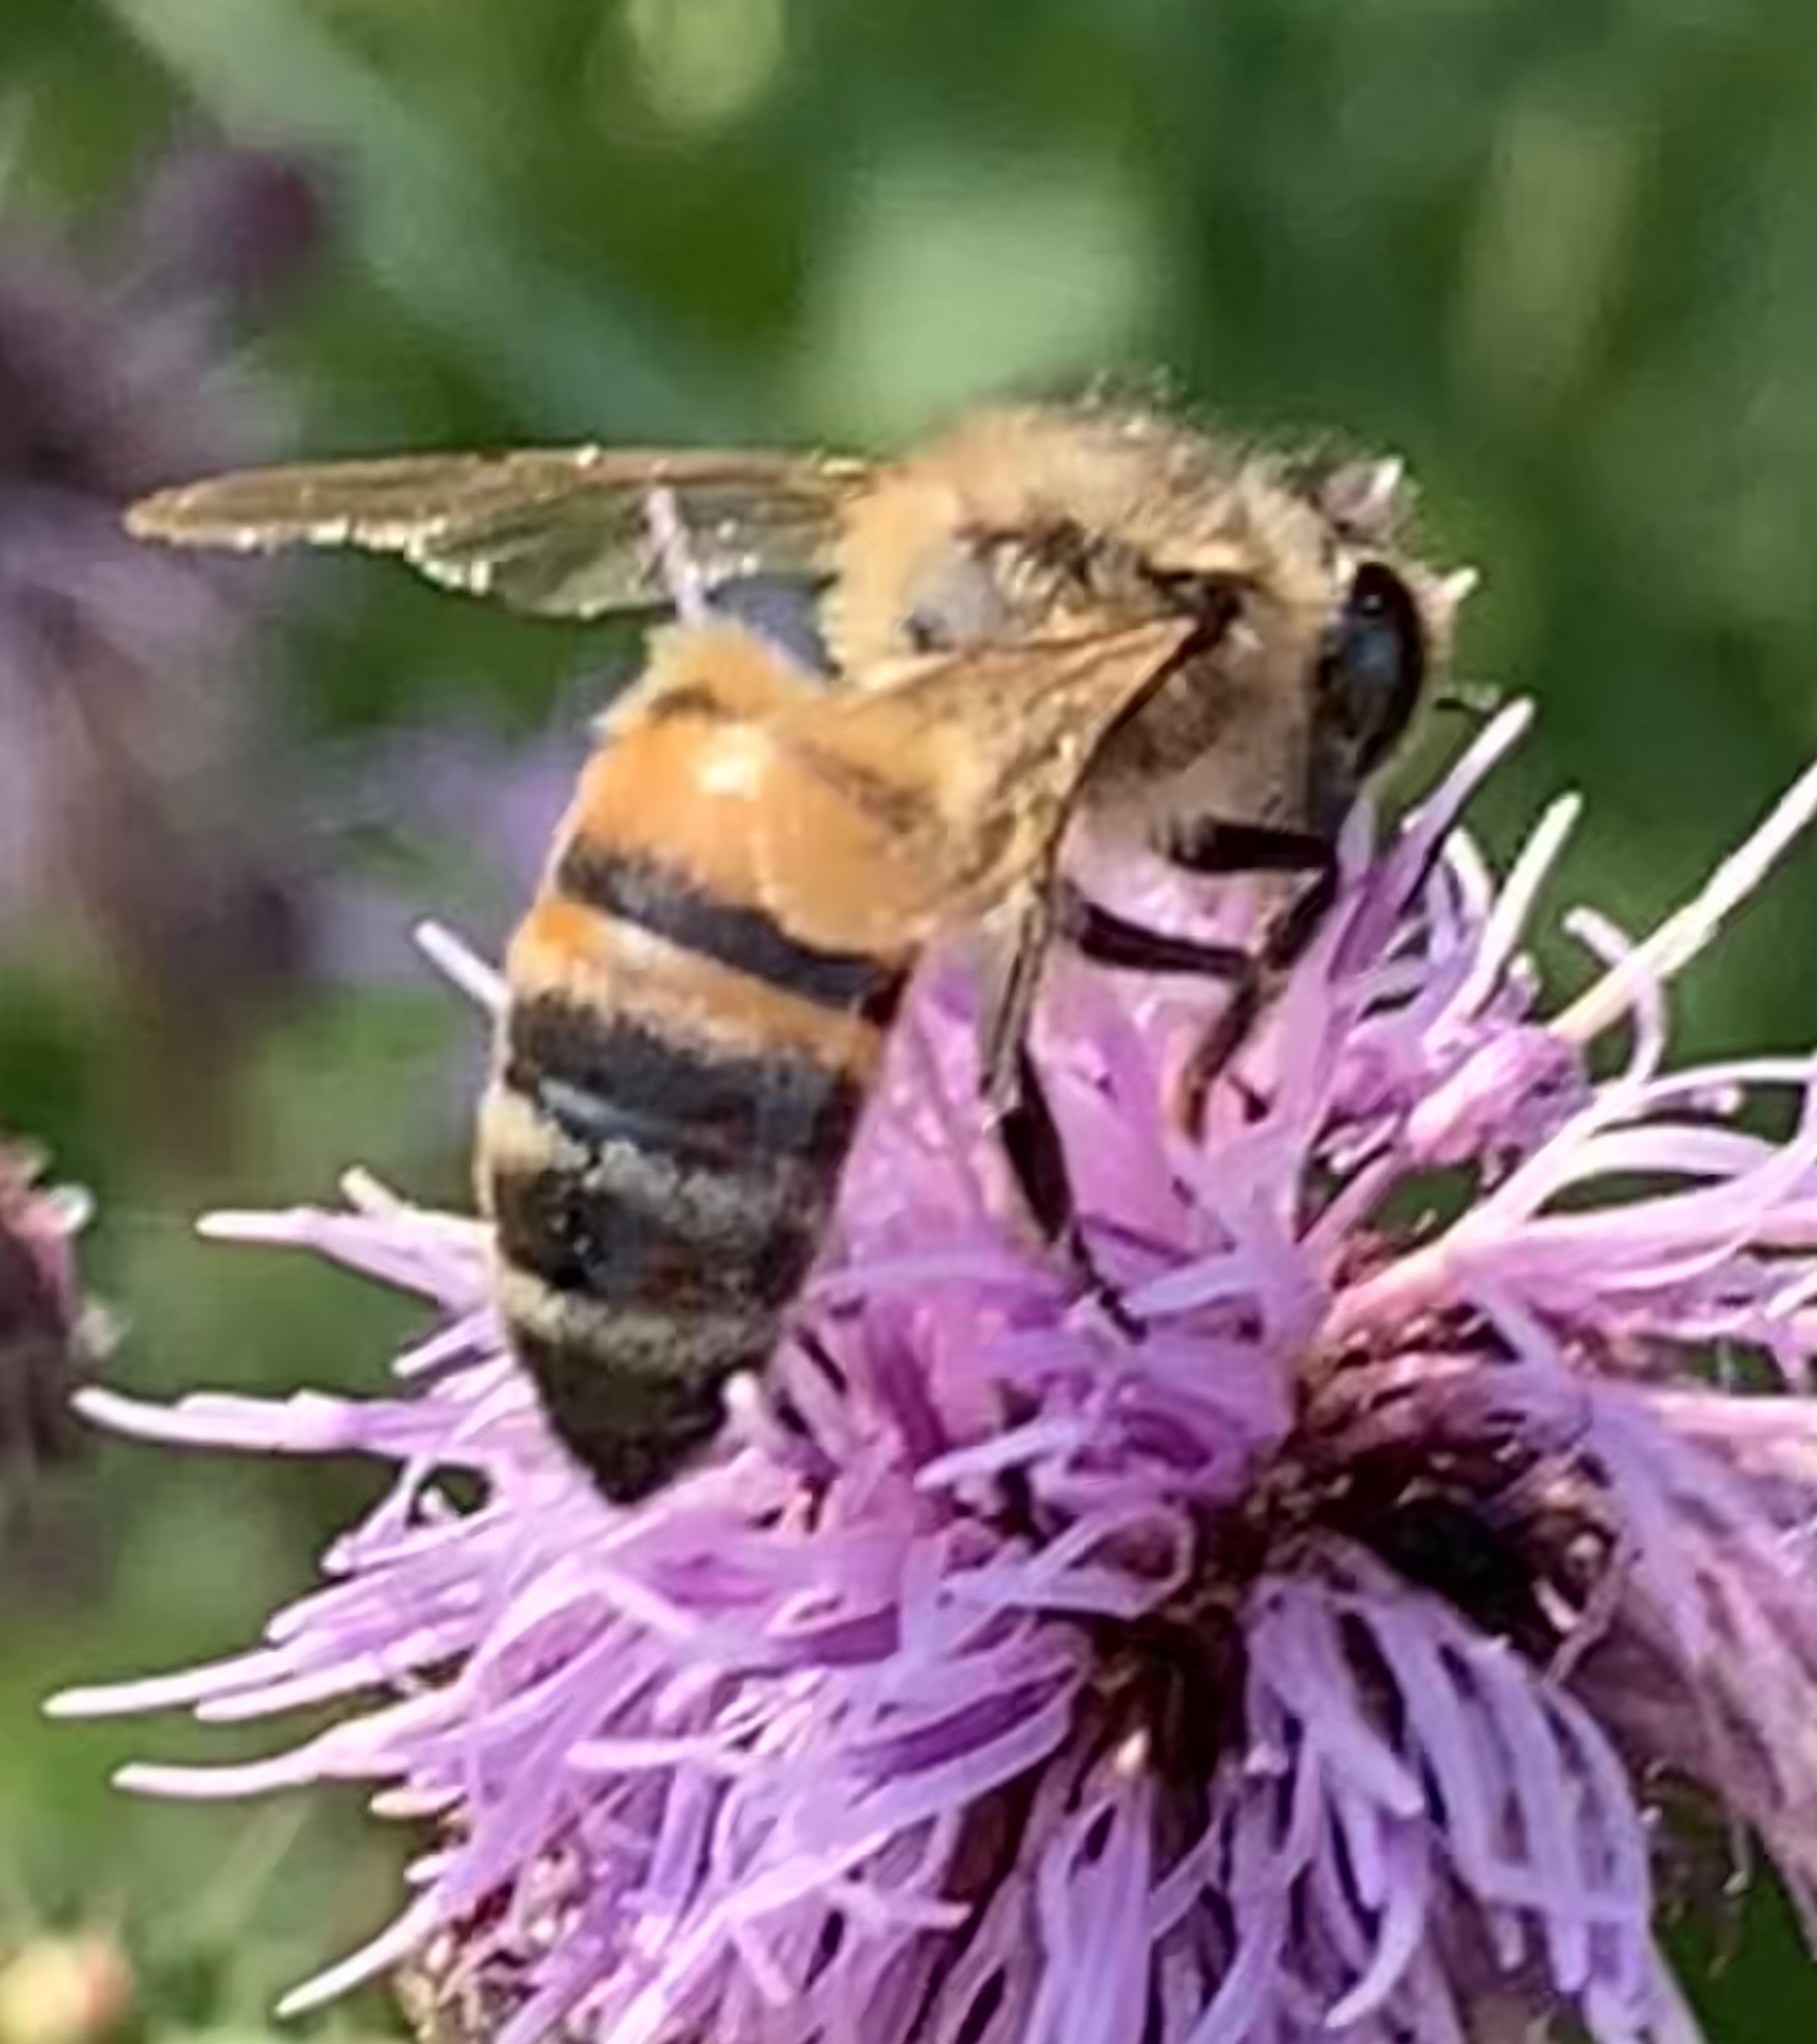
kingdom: Animalia
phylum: Arthropoda
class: Insecta
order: Hymenoptera
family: Apidae
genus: Apis
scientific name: Apis mellifera
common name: Honey bee
